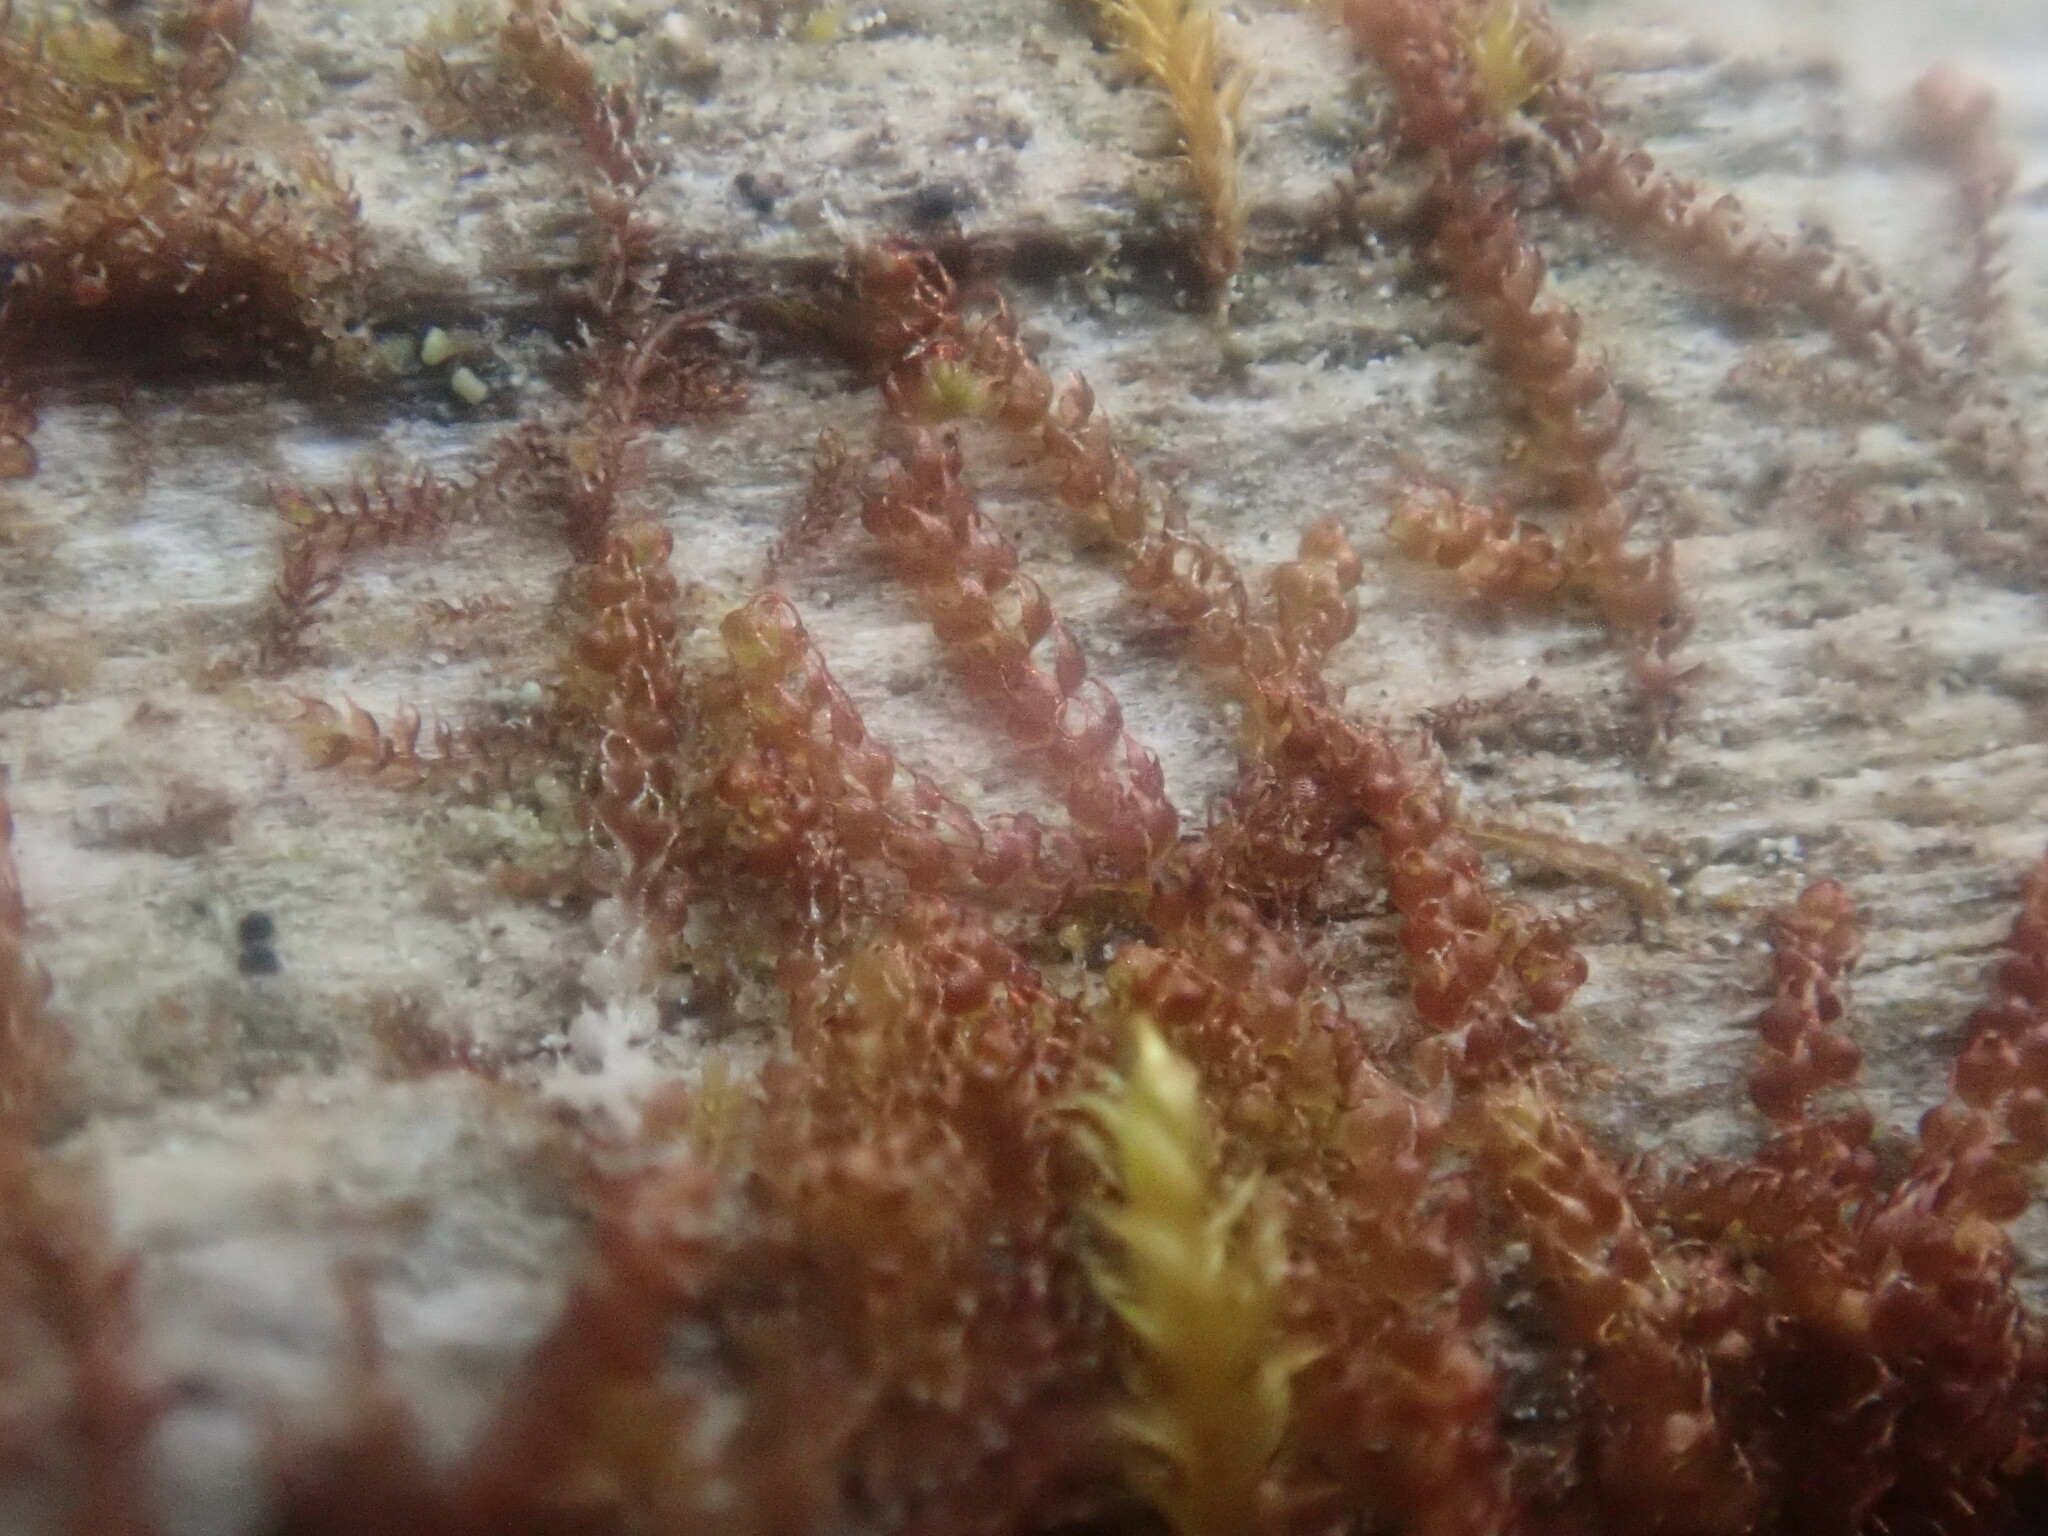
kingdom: Plantae
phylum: Marchantiophyta
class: Jungermanniopsida
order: Jungermanniales
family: Cephaloziaceae
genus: Nowellia
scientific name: Nowellia curvifolia
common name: Wood rustwort
